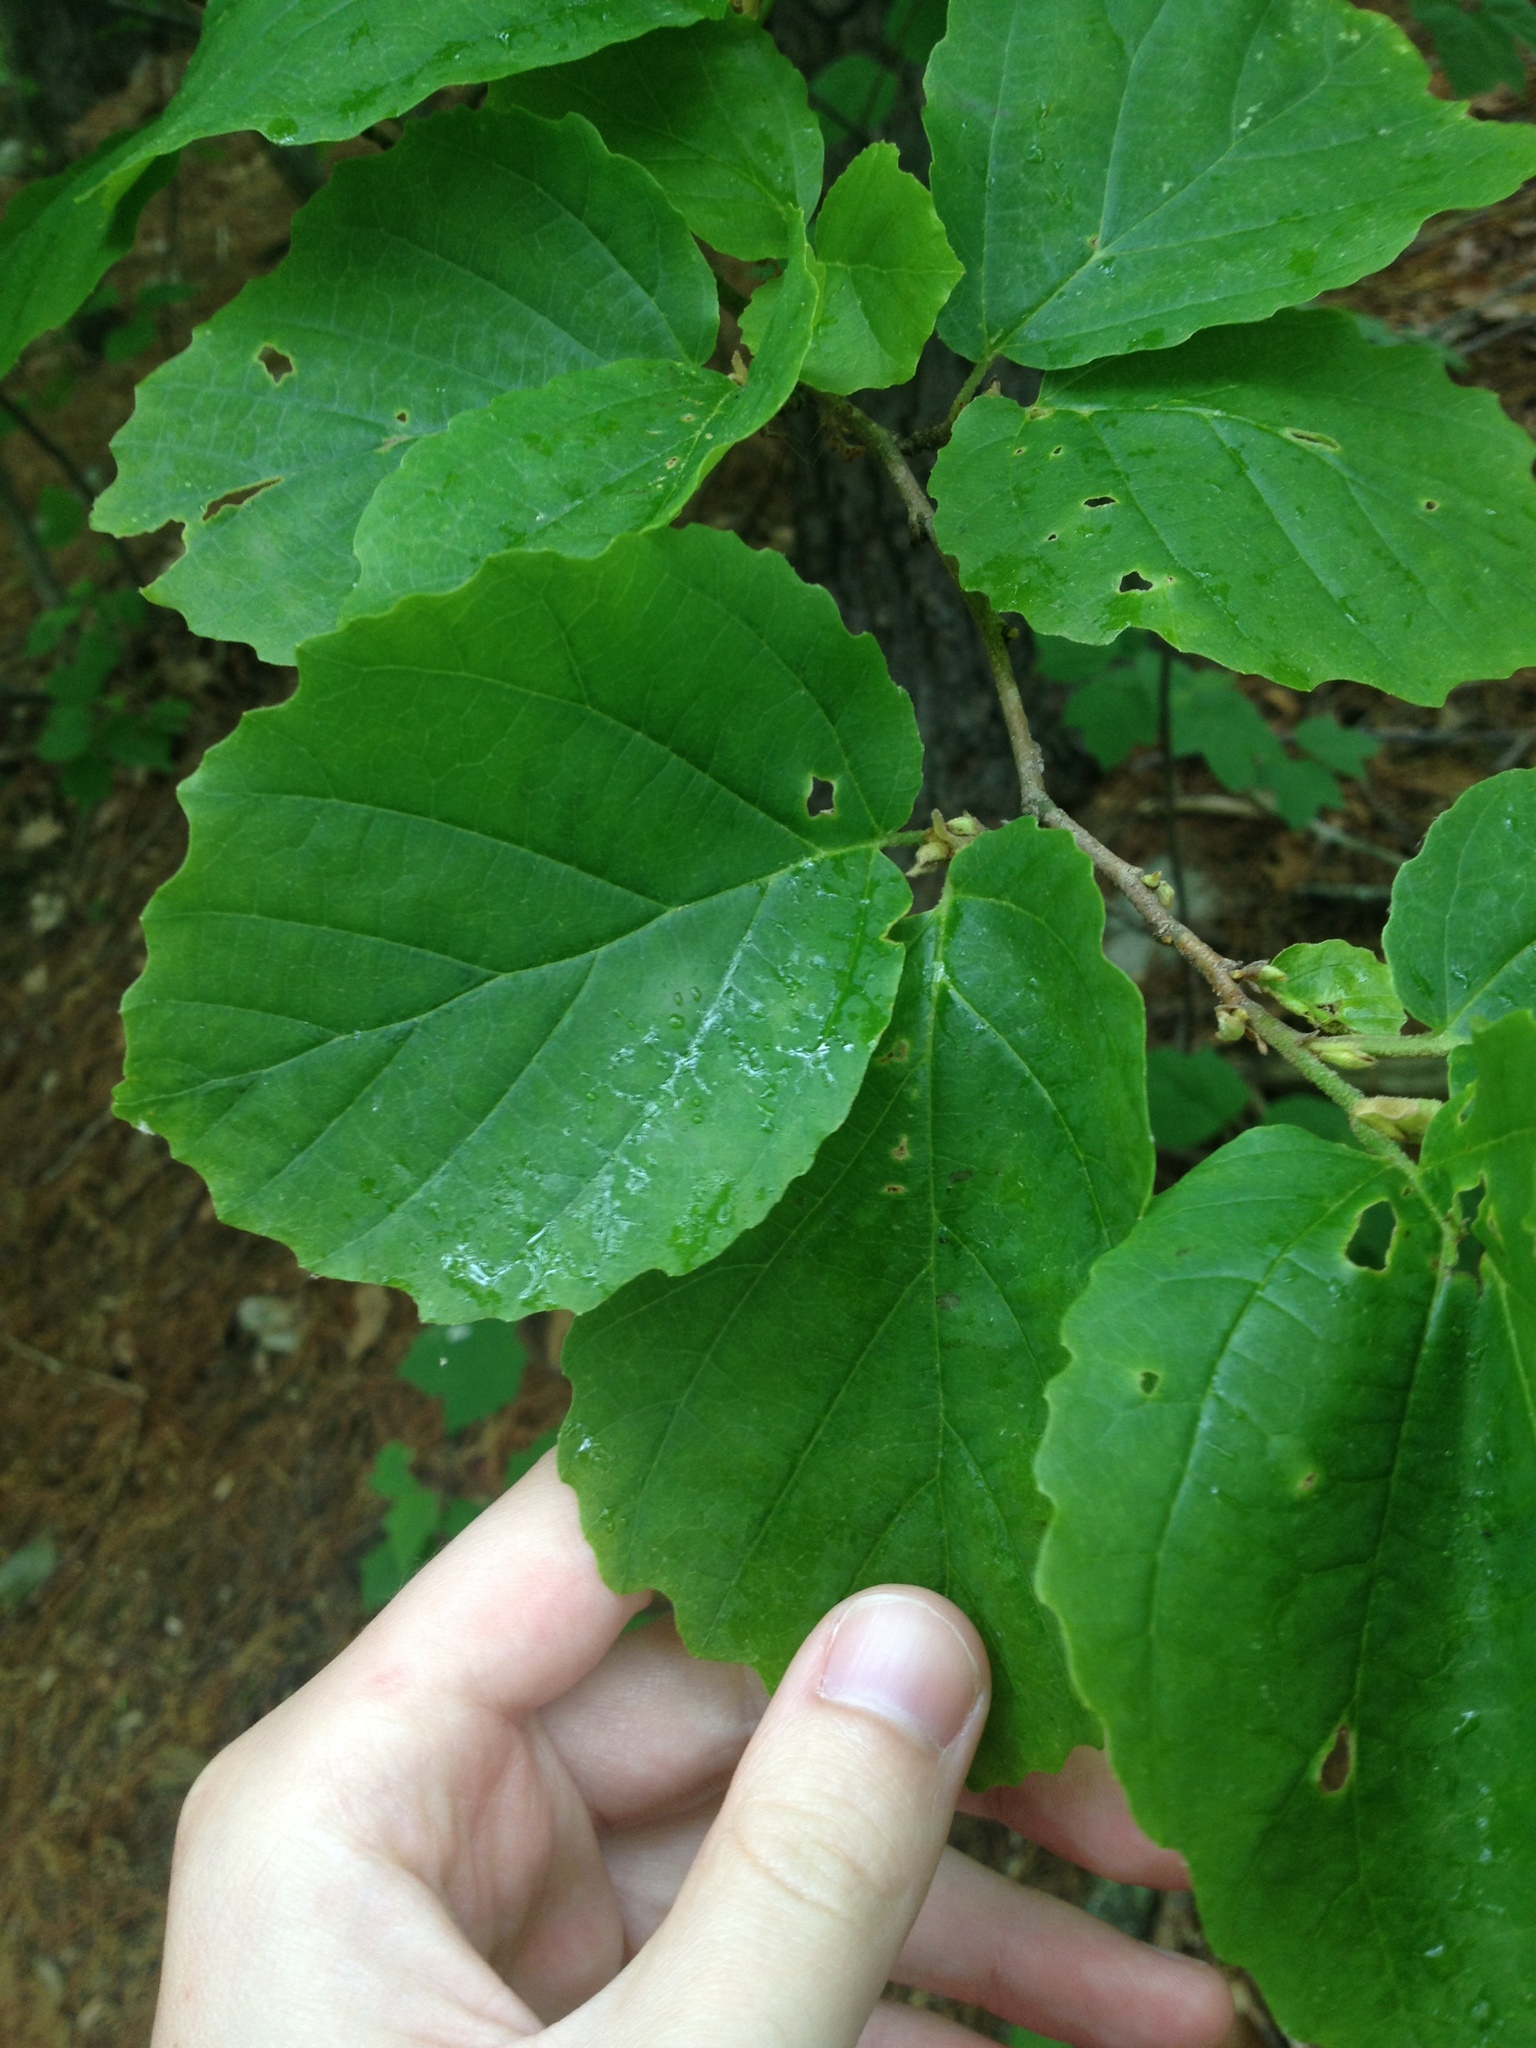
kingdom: Plantae
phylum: Tracheophyta
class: Magnoliopsida
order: Saxifragales
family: Hamamelidaceae
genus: Hamamelis
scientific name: Hamamelis virginiana
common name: Witch-hazel
